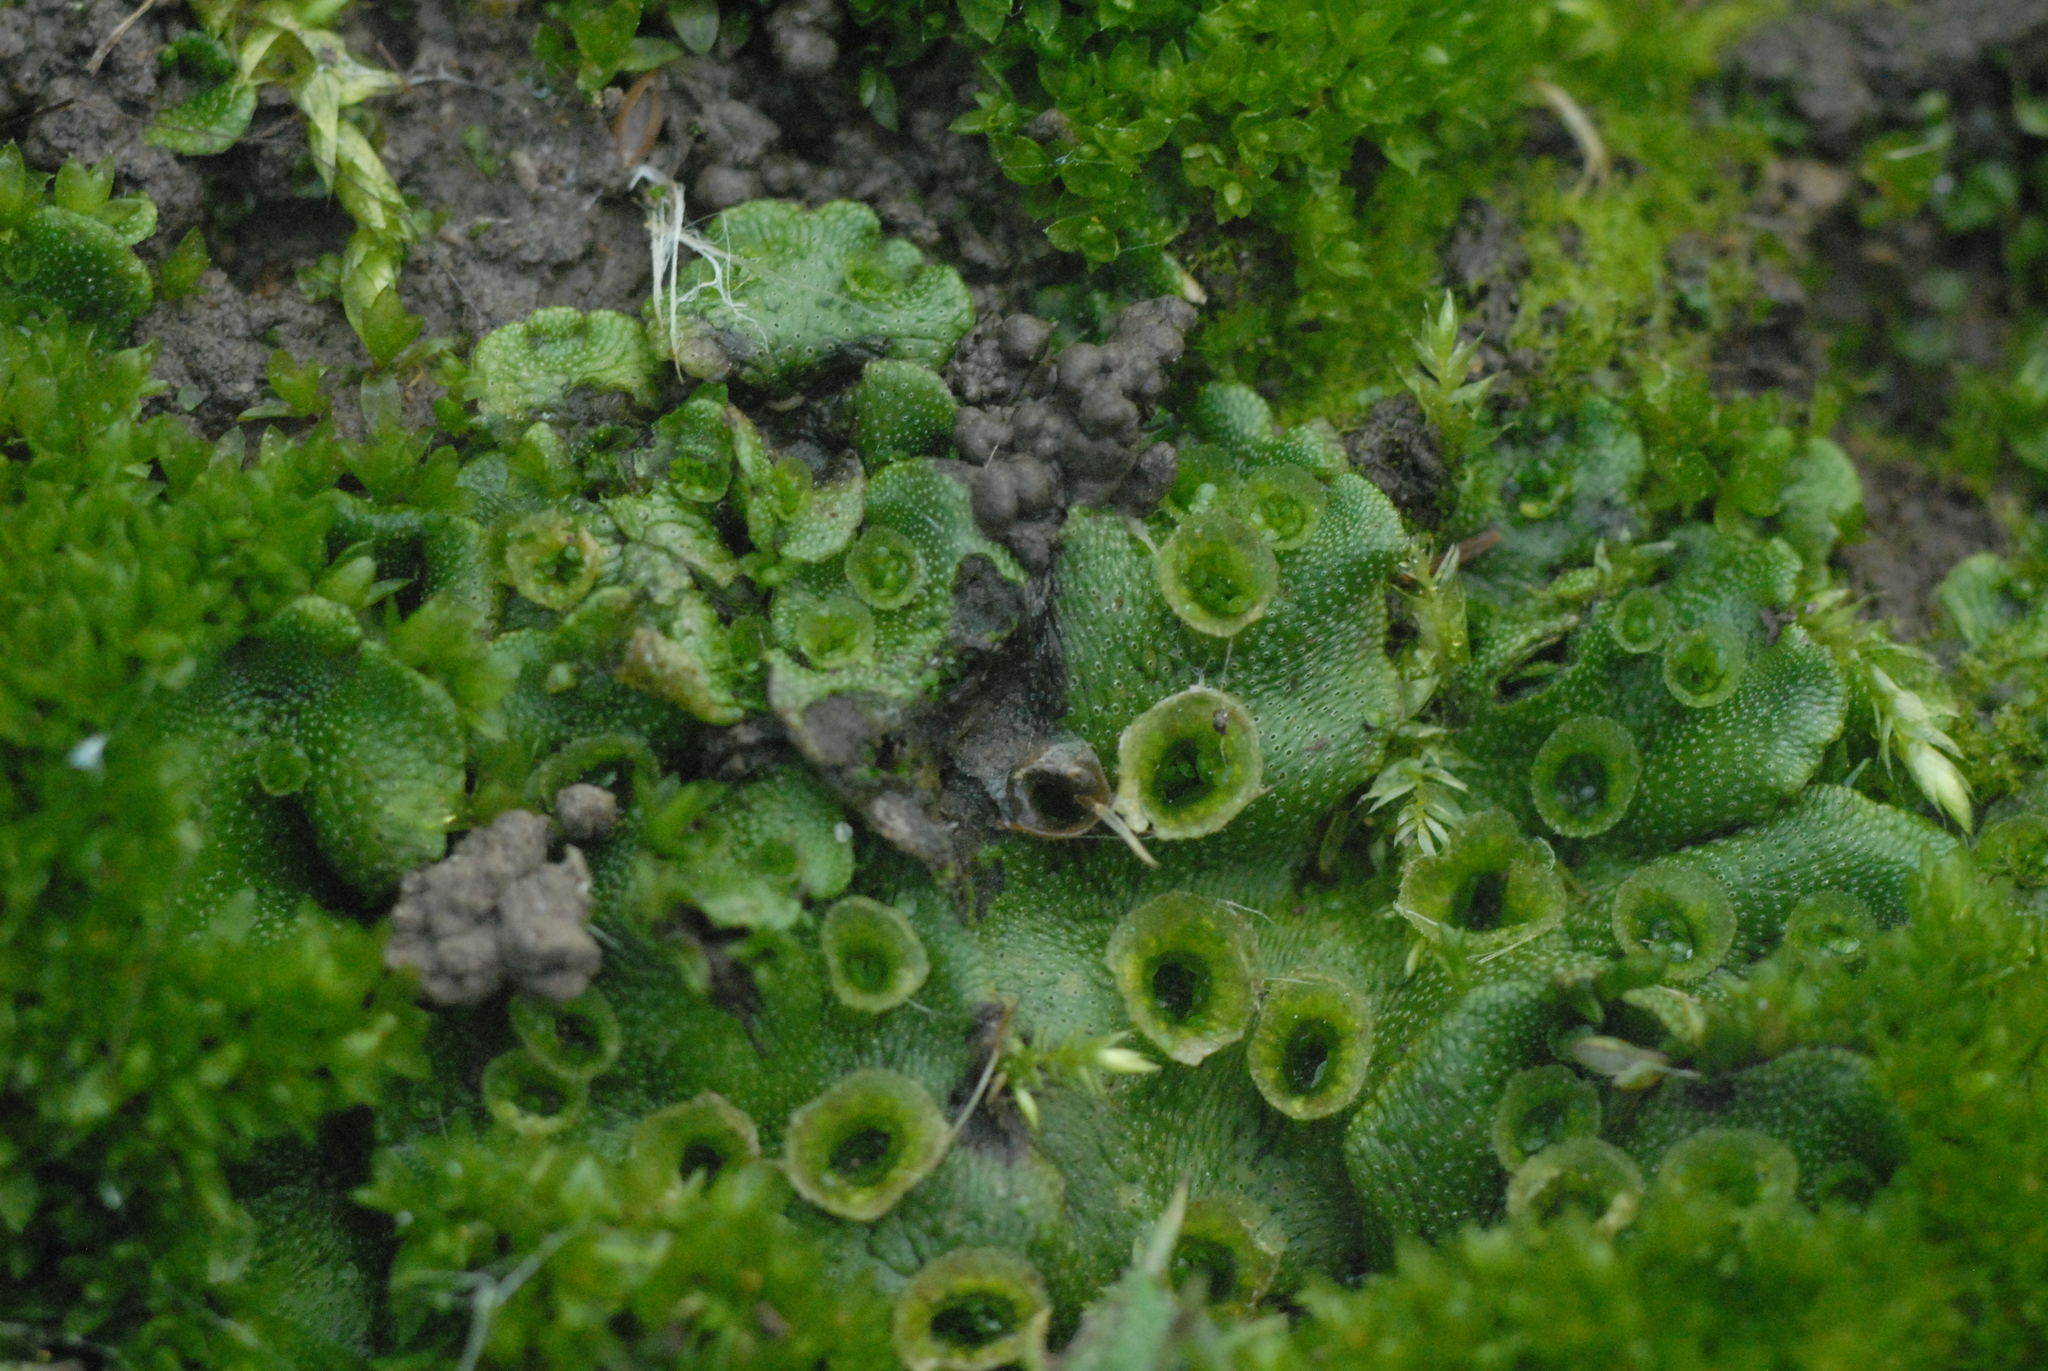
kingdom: Plantae
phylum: Marchantiophyta
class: Marchantiopsida
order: Marchantiales
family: Marchantiaceae
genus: Marchantia
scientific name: Marchantia polymorpha
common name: Common liverwort
